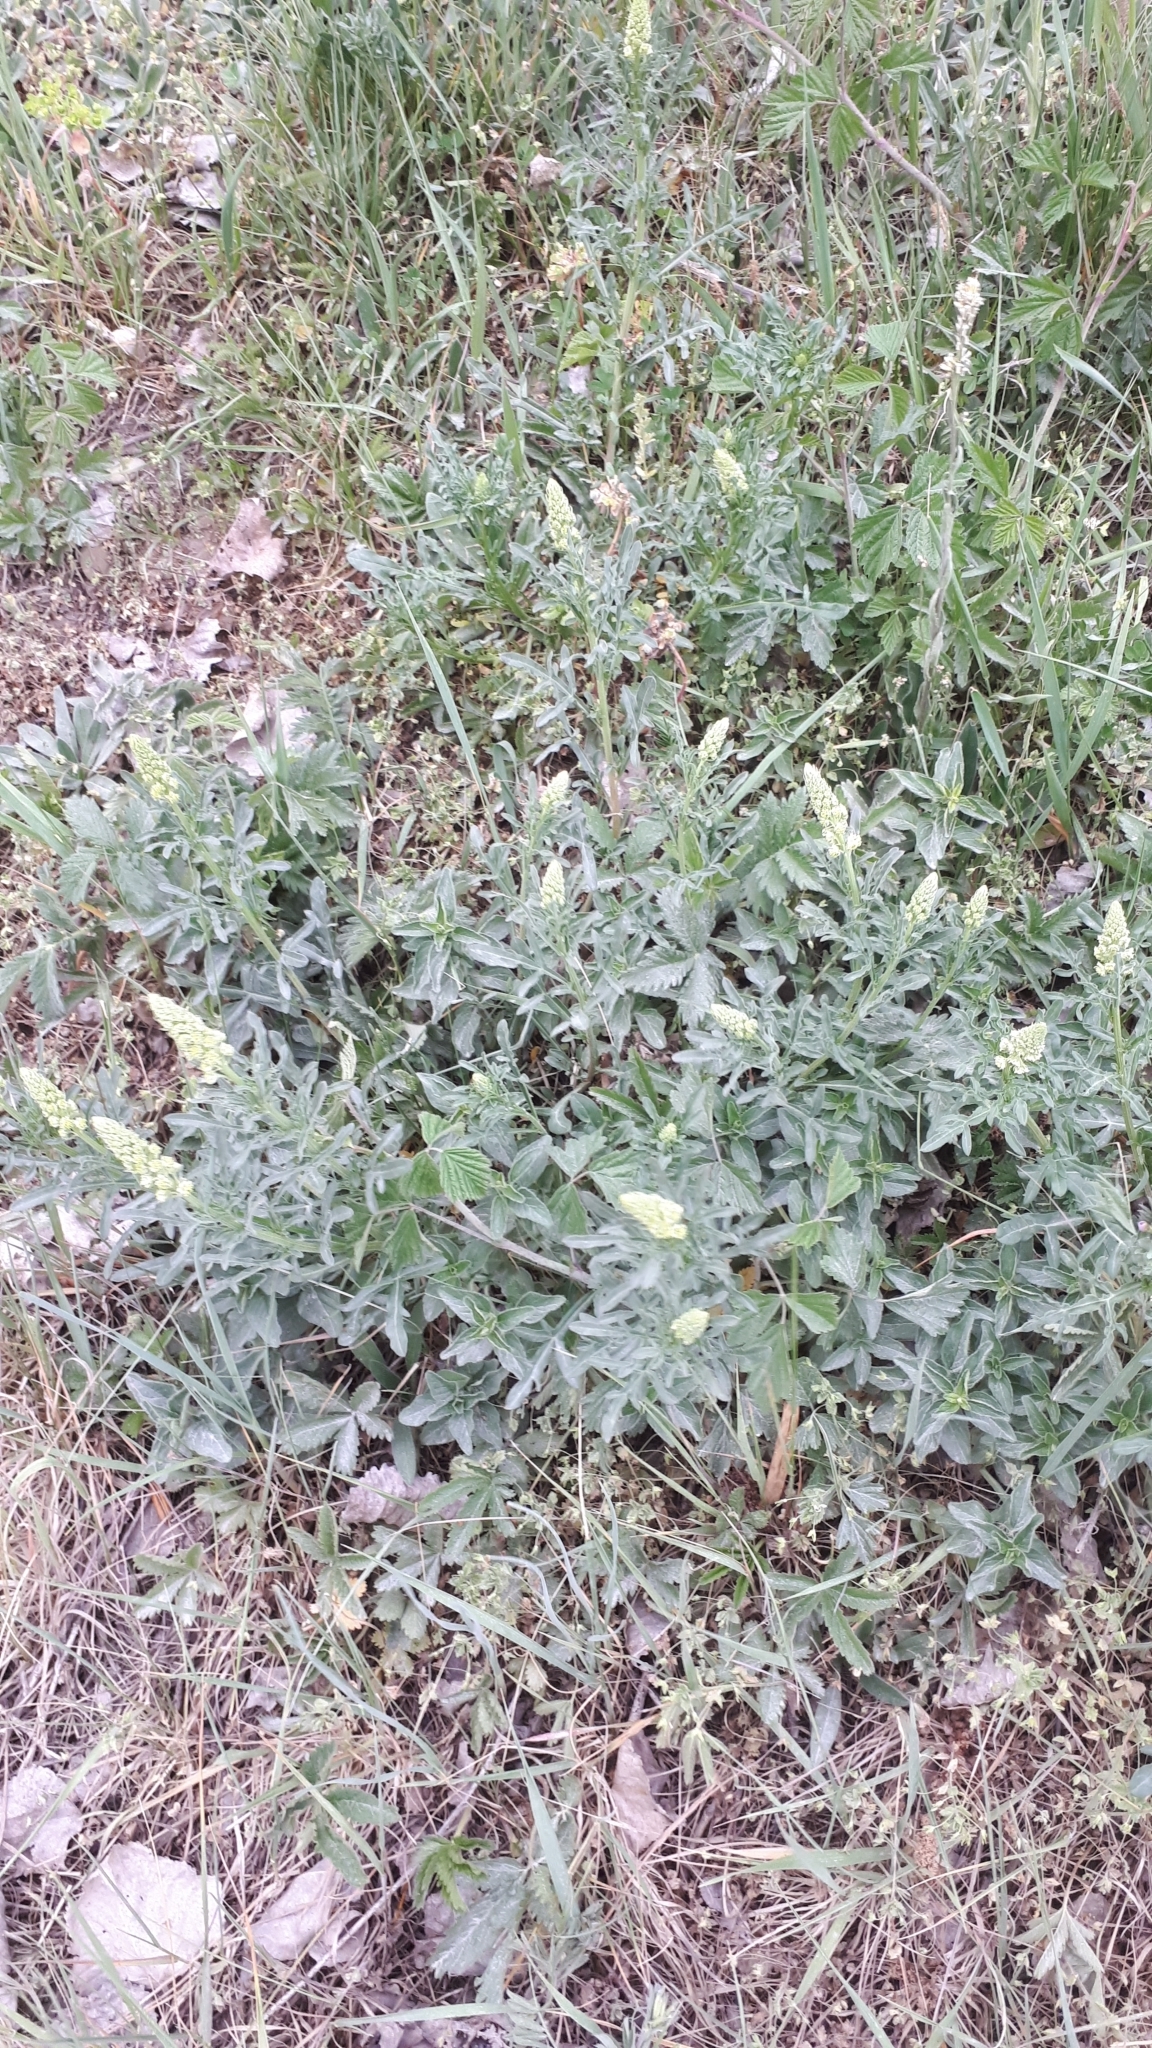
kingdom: Plantae
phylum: Tracheophyta
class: Magnoliopsida
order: Brassicales
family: Resedaceae
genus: Reseda
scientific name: Reseda lutea
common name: Wild mignonette
